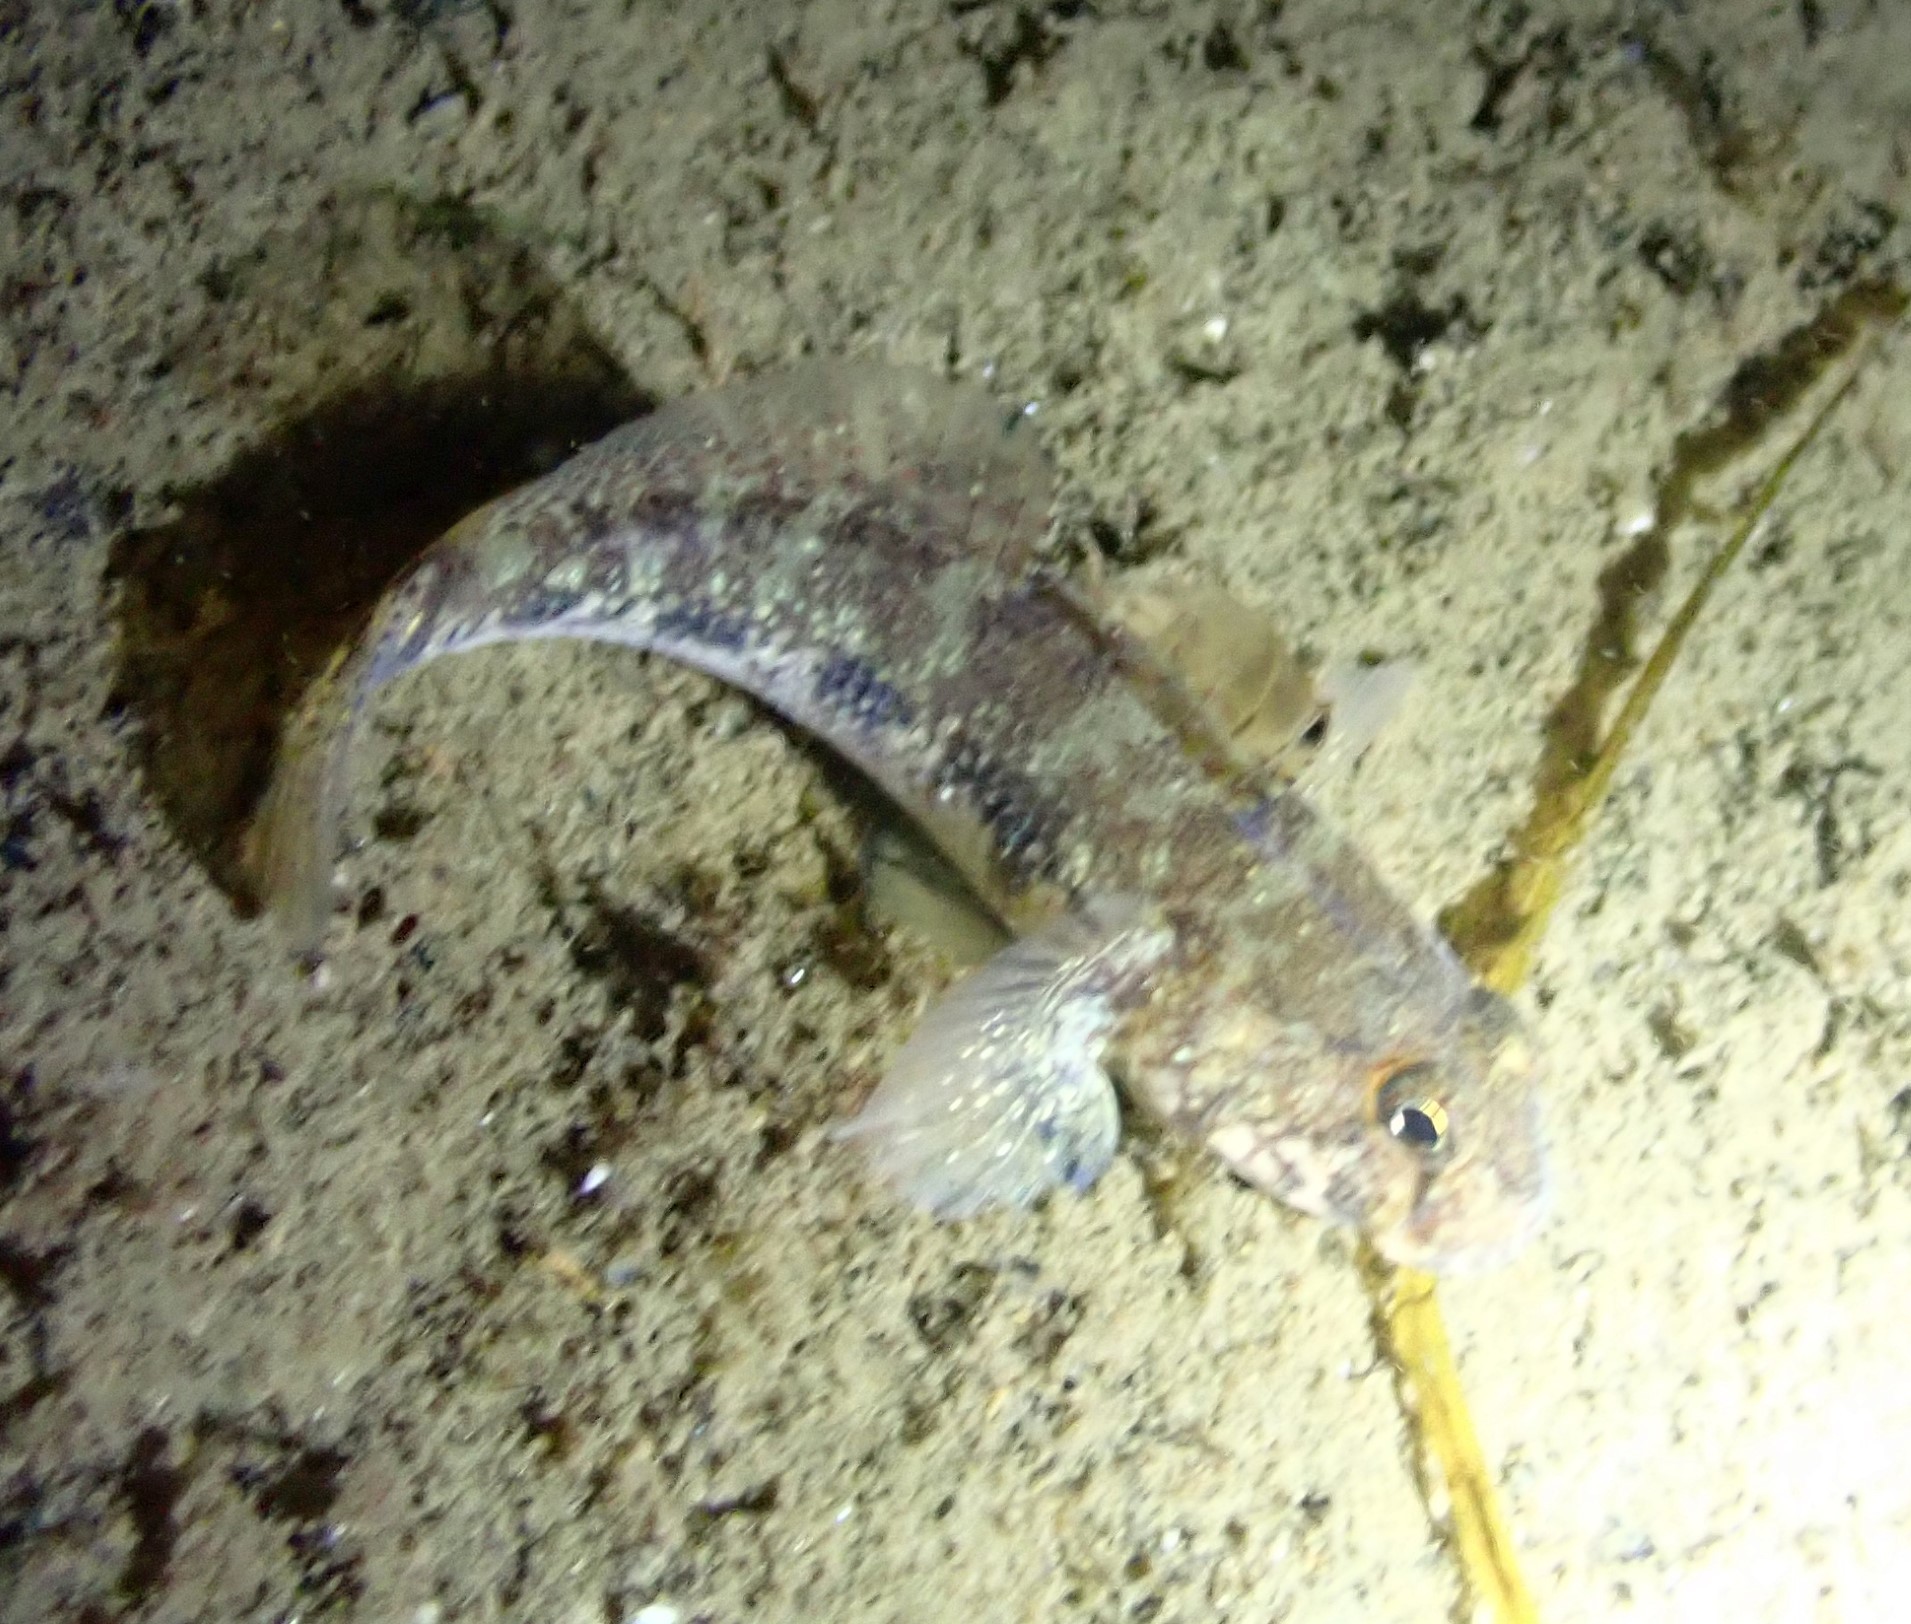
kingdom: Animalia
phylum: Chordata
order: Perciformes
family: Gobiidae
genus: Gobius
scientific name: Gobius niger
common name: Black goby
